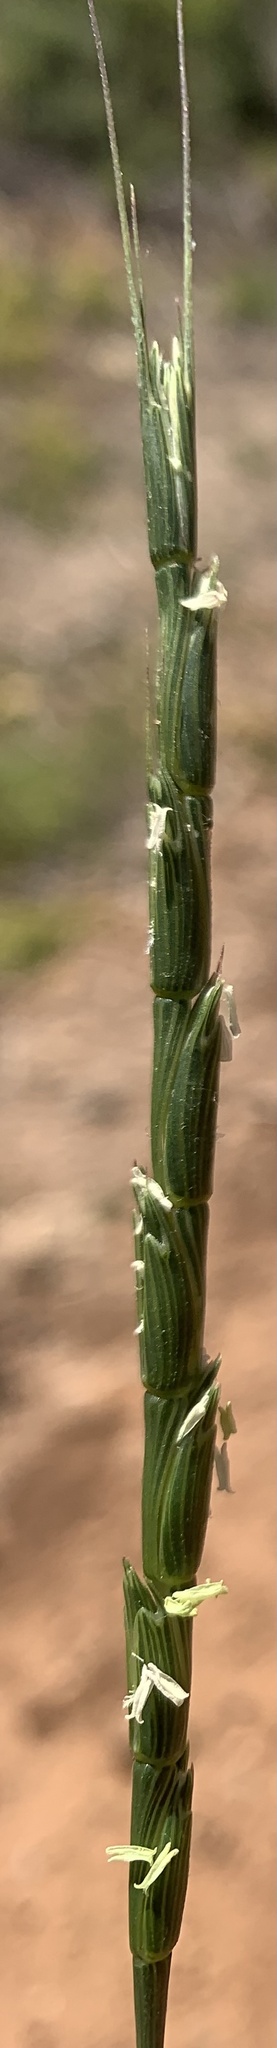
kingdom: Plantae
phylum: Tracheophyta
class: Liliopsida
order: Poales
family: Poaceae
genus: Aegilops
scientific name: Aegilops cylindrica
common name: Jointed goatgrass
